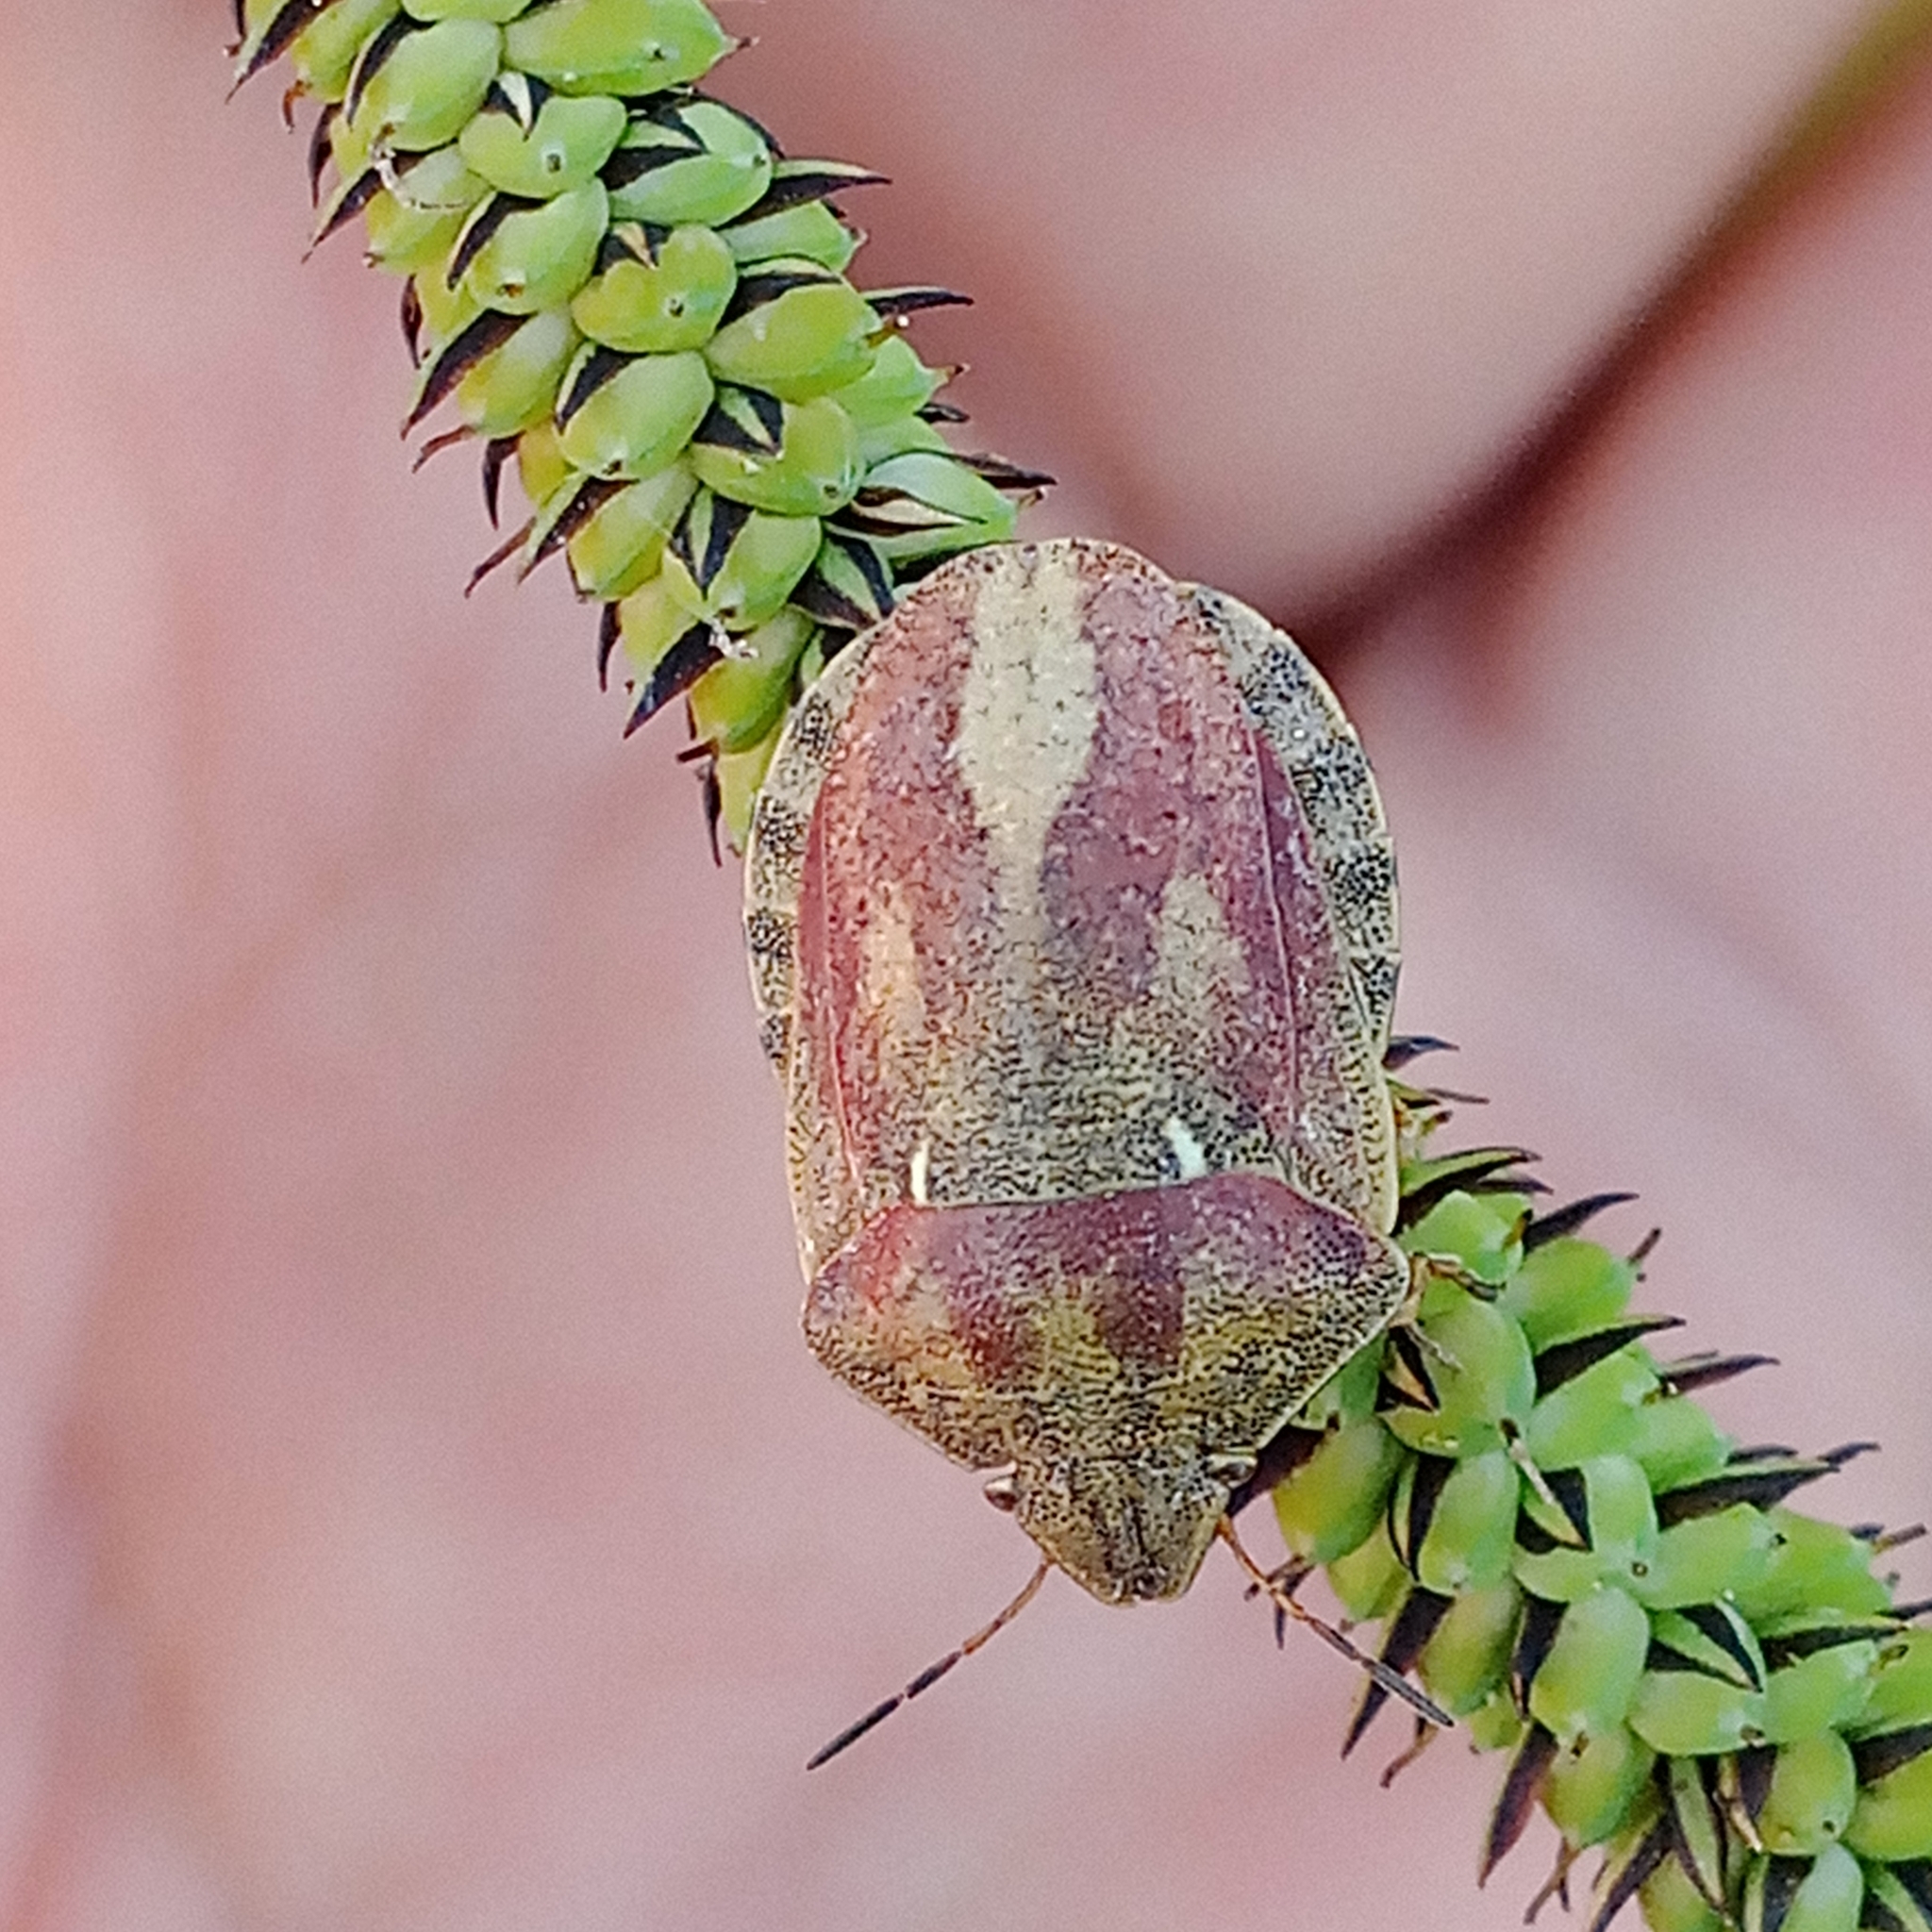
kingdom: Animalia
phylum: Arthropoda
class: Insecta
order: Hemiptera
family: Scutelleridae
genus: Eurygaster
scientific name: Eurygaster testudinaria
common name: Tortoise bug
